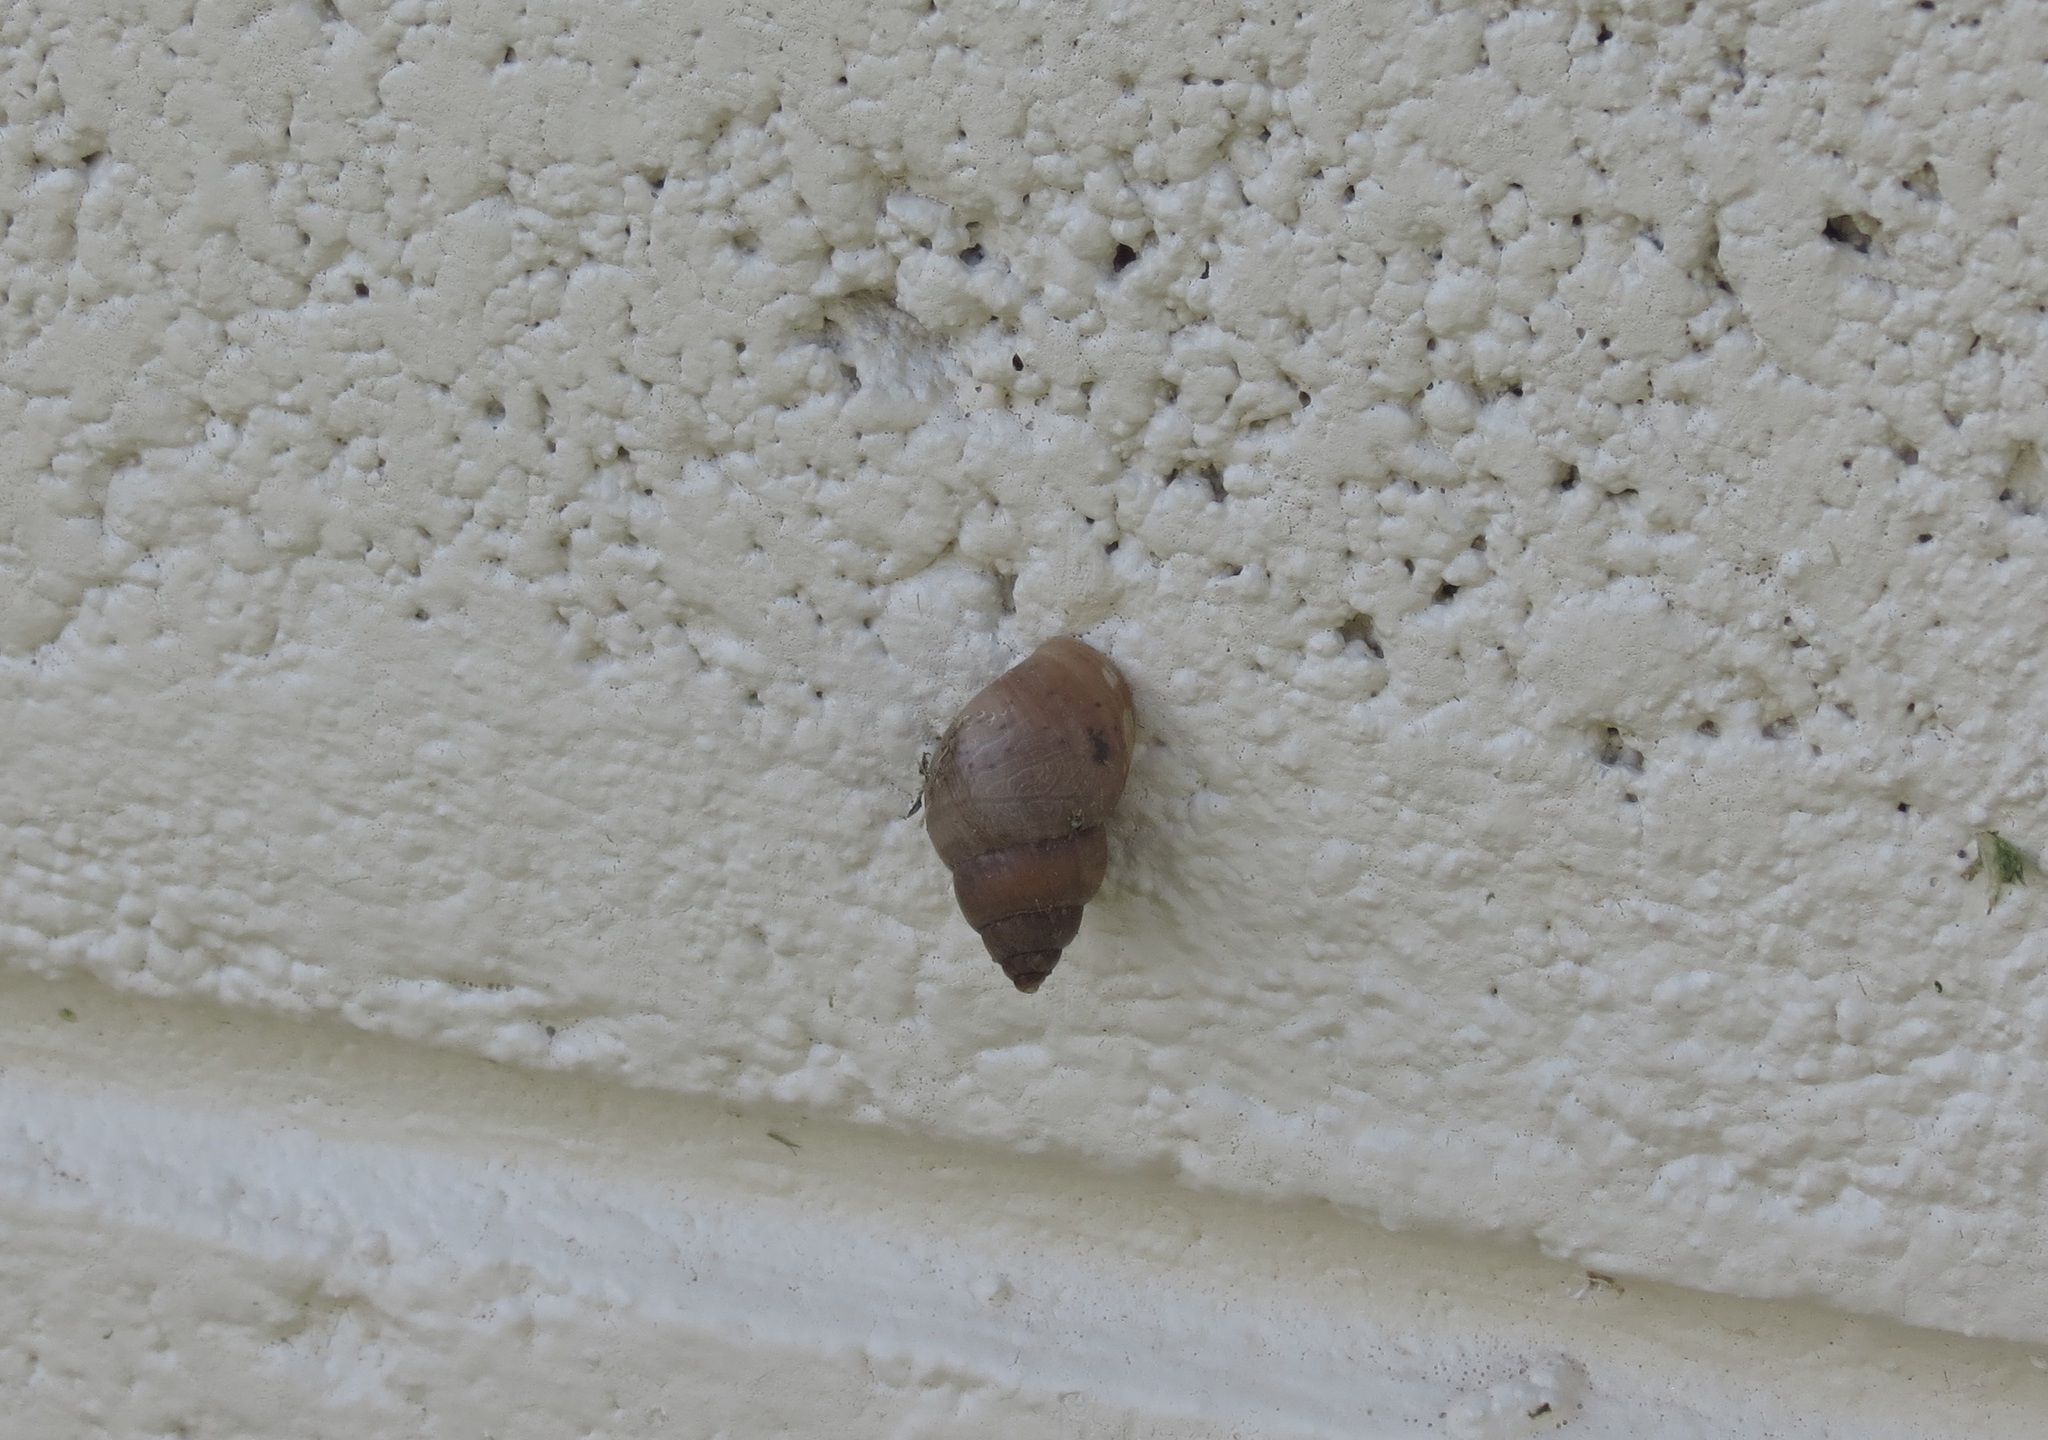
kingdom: Animalia
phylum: Mollusca
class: Gastropoda
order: Stylommatophora
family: Bulimulidae
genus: Bulimulus
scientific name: Bulimulus dysoni
